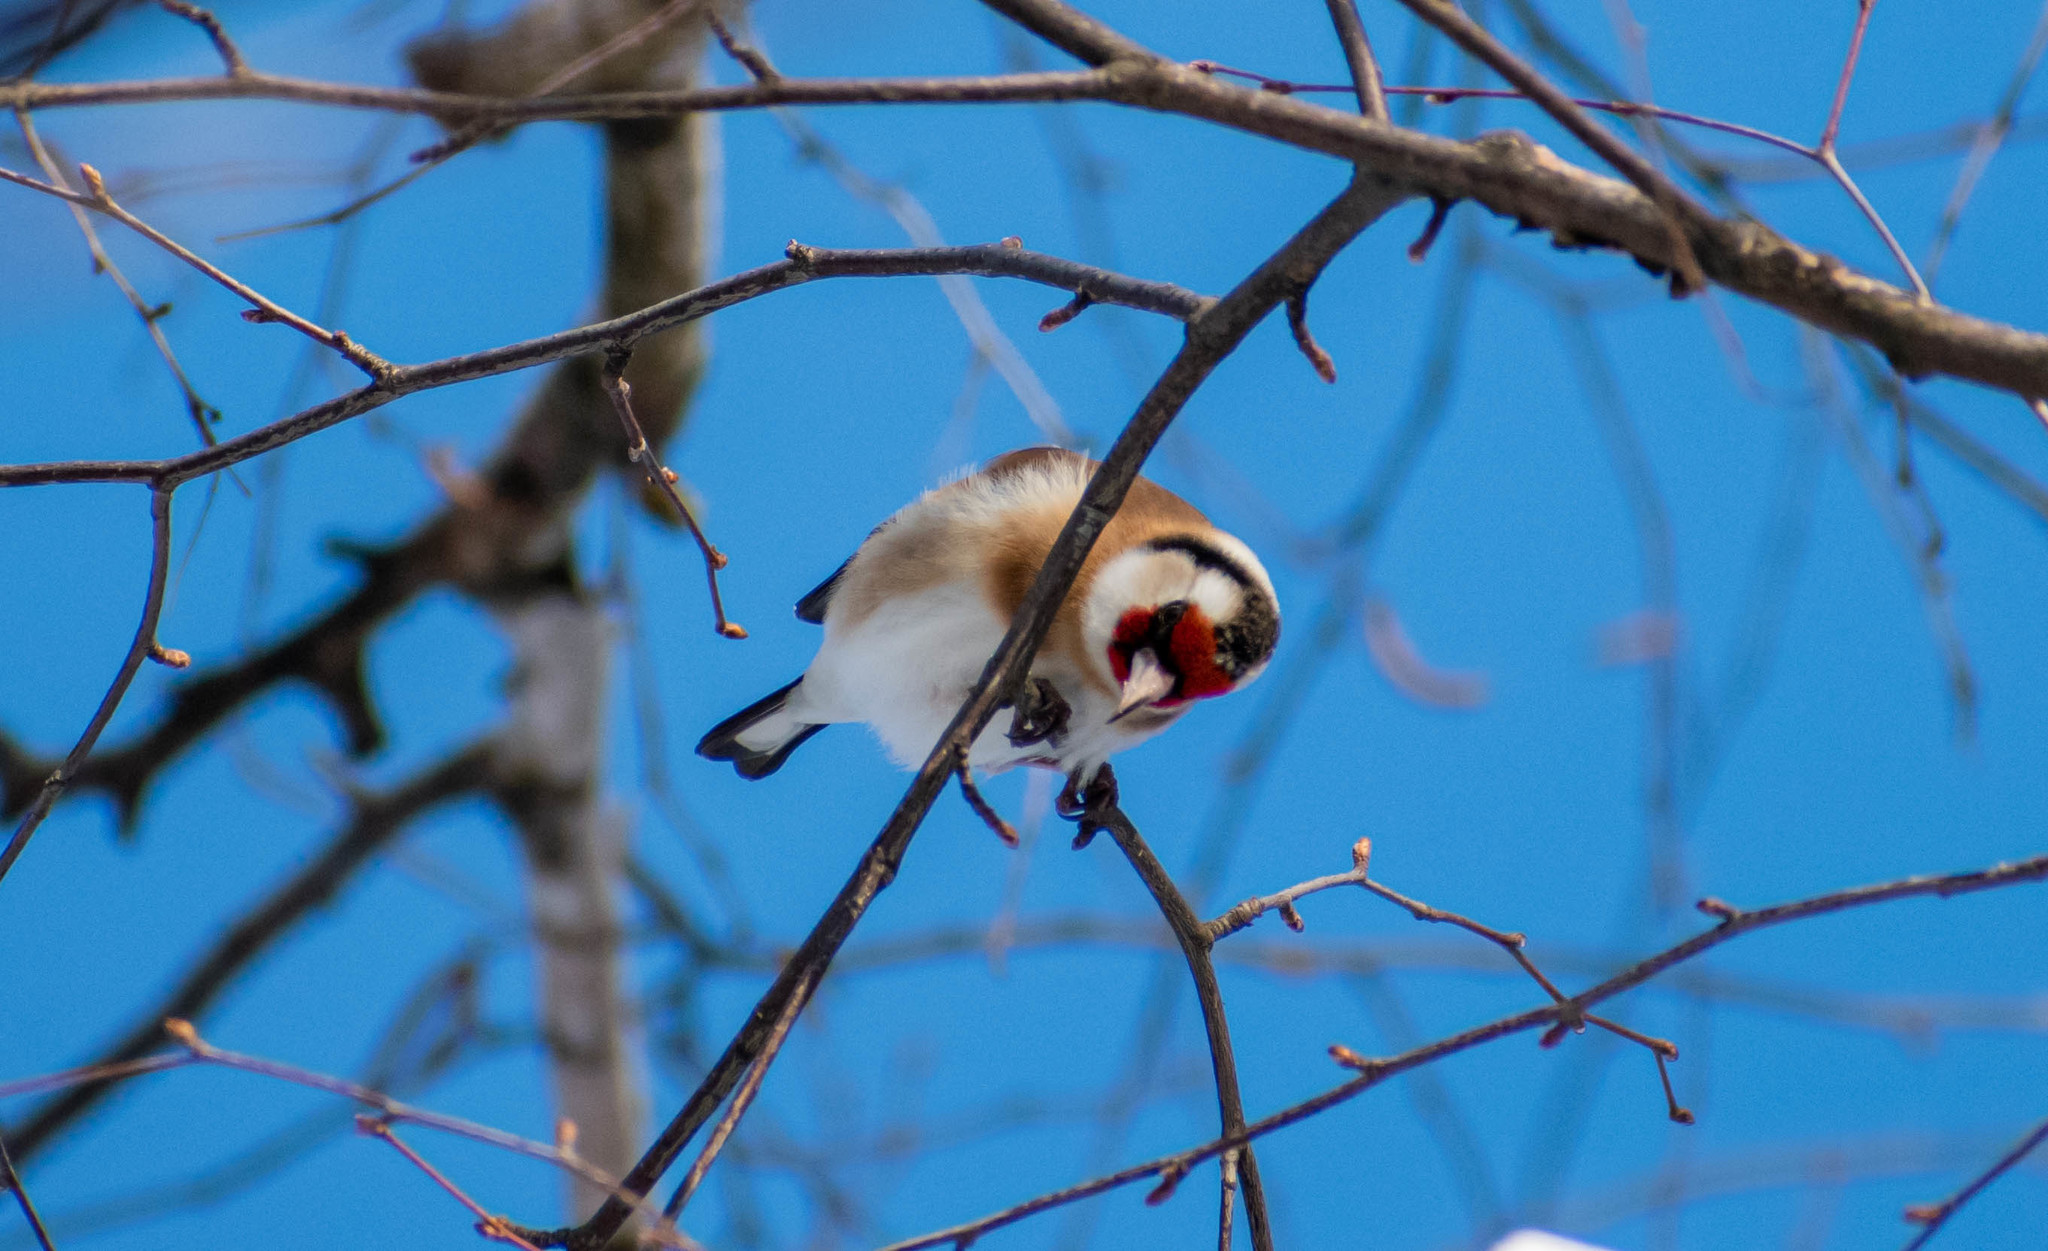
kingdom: Animalia
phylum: Chordata
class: Aves
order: Passeriformes
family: Fringillidae
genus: Carduelis
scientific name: Carduelis carduelis
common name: European goldfinch
